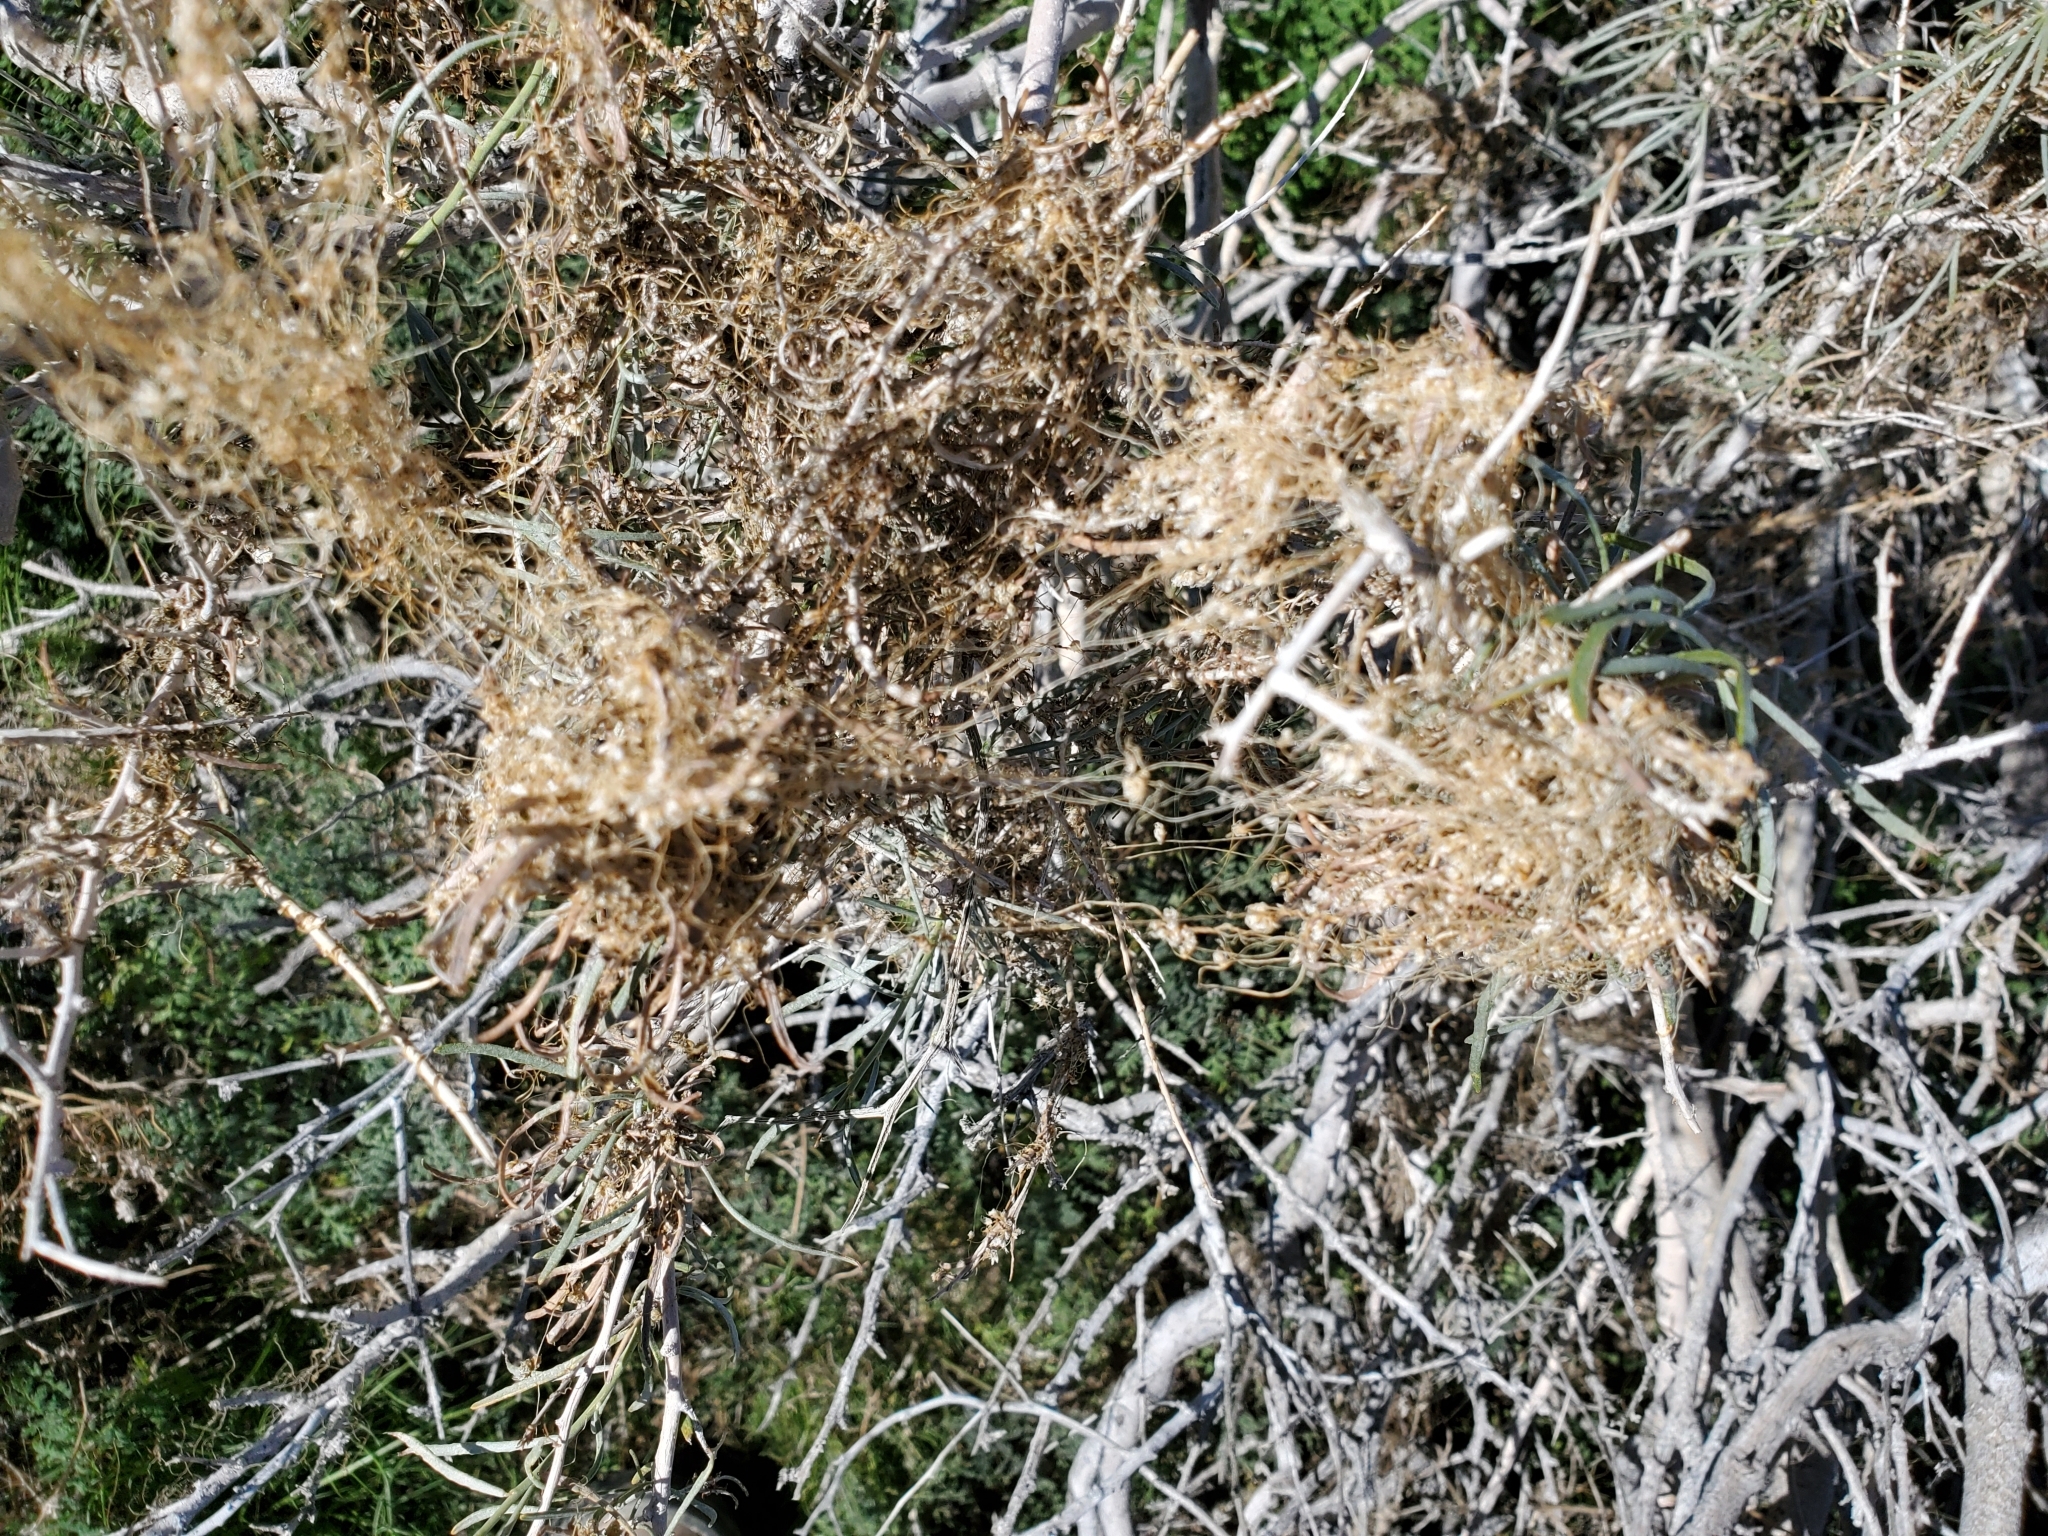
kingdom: Plantae
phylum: Tracheophyta
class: Magnoliopsida
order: Solanales
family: Convolvulaceae
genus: Cuscuta
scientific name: Cuscuta californica
